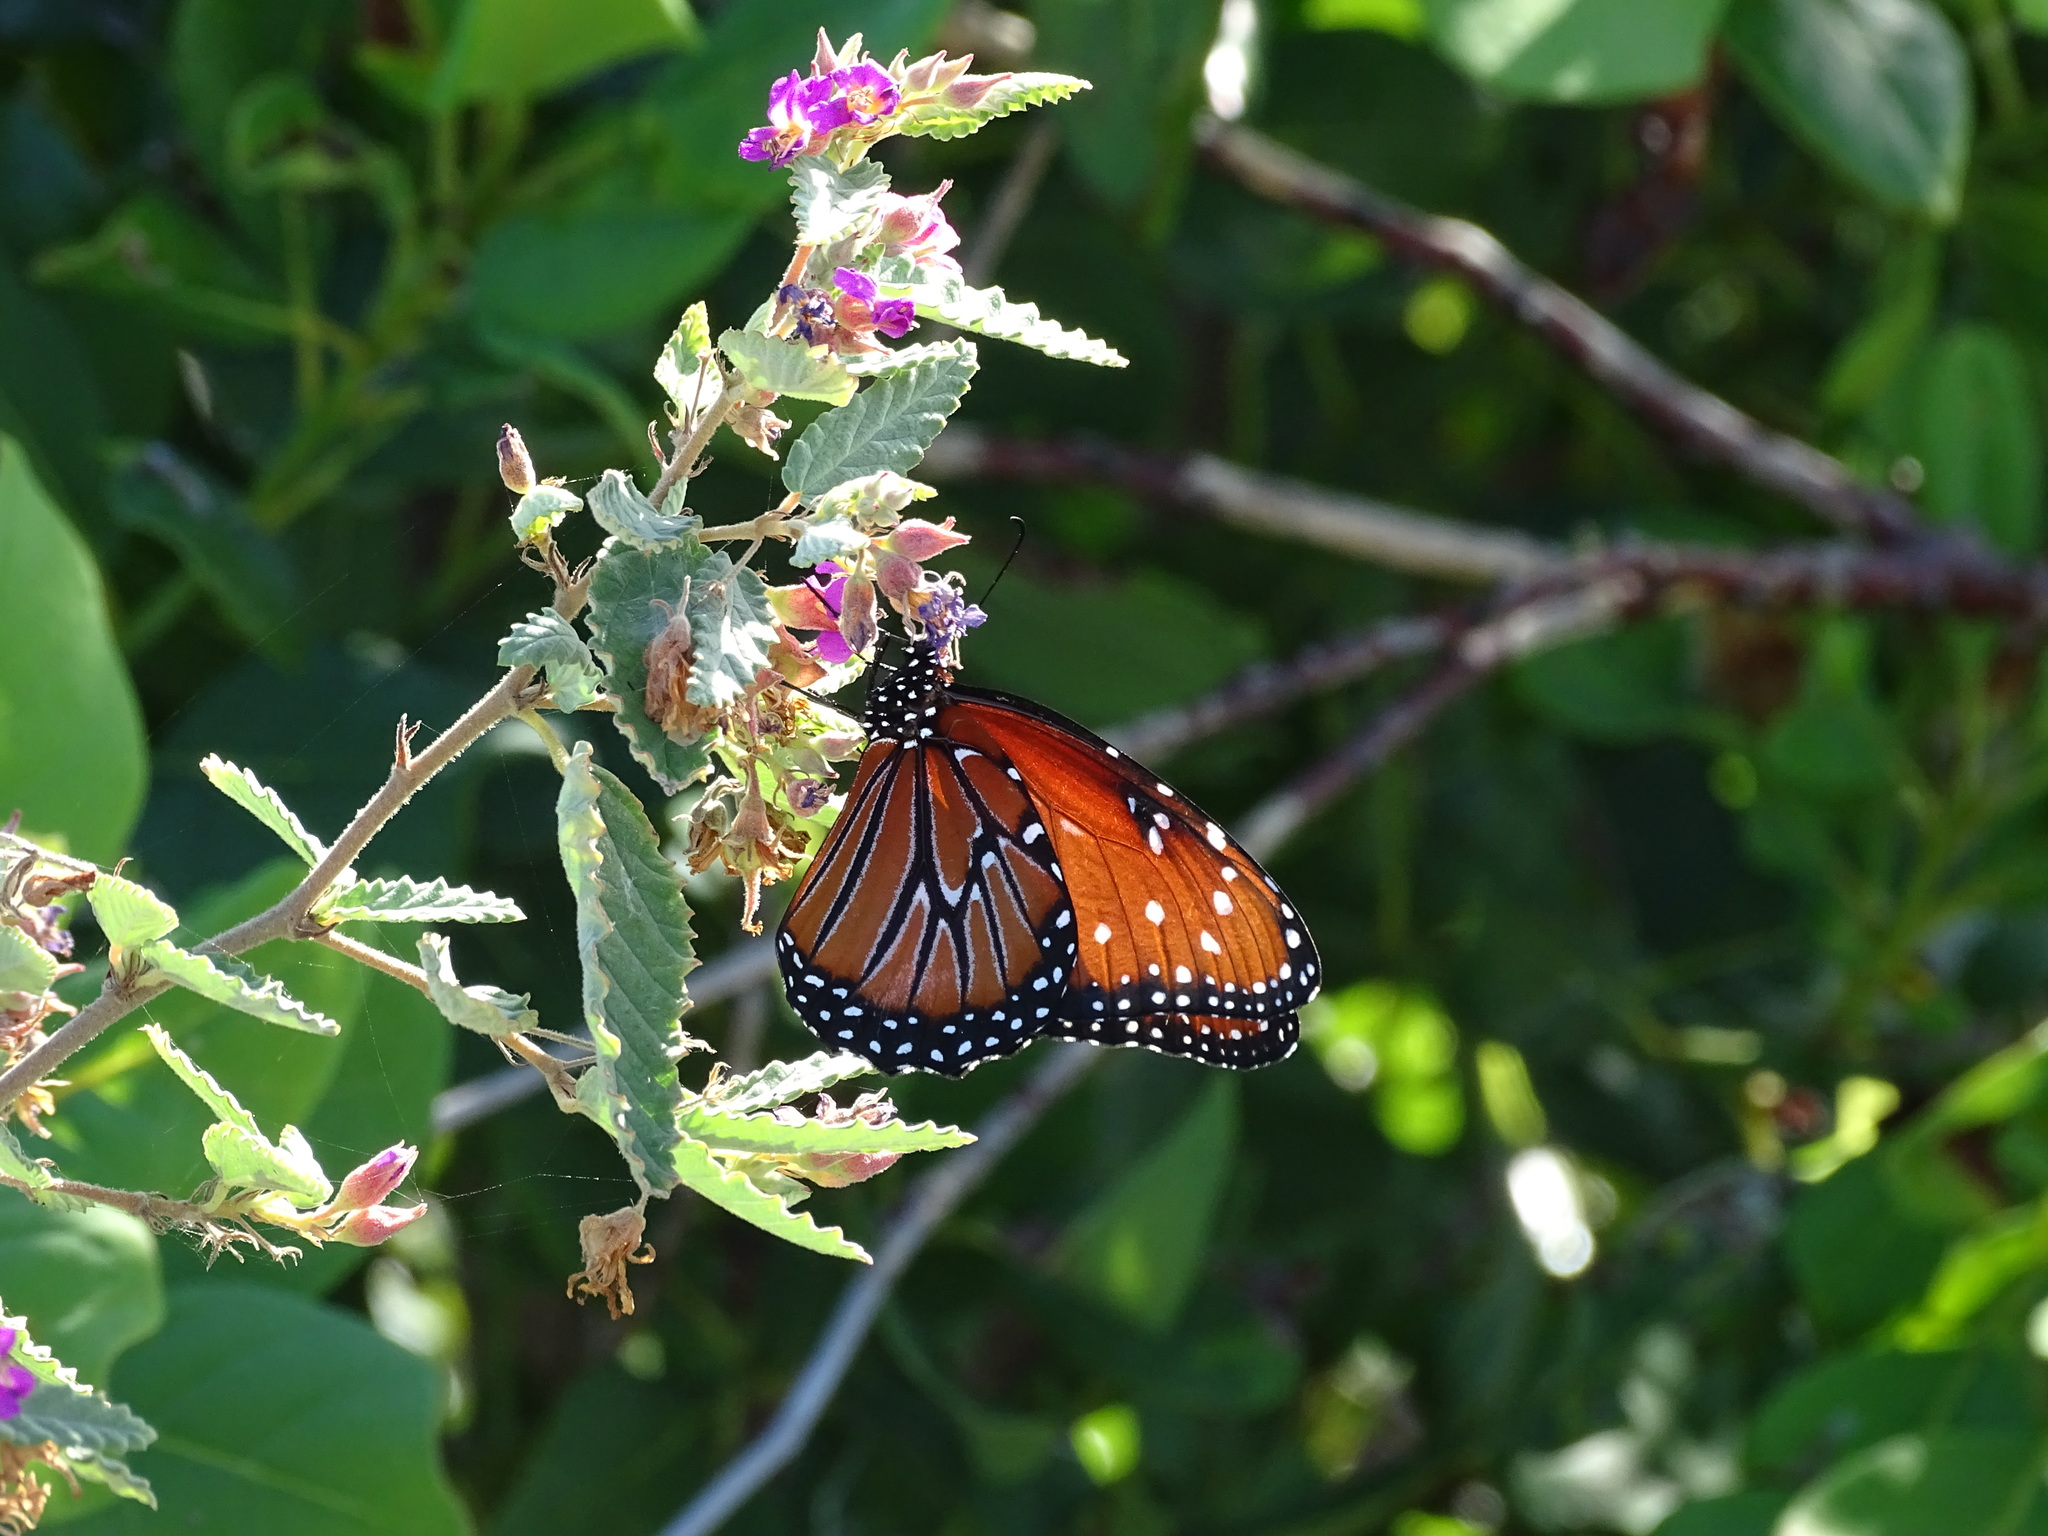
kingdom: Animalia
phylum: Arthropoda
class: Insecta
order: Lepidoptera
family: Nymphalidae
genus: Danaus
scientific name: Danaus gilippus
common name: Queen
